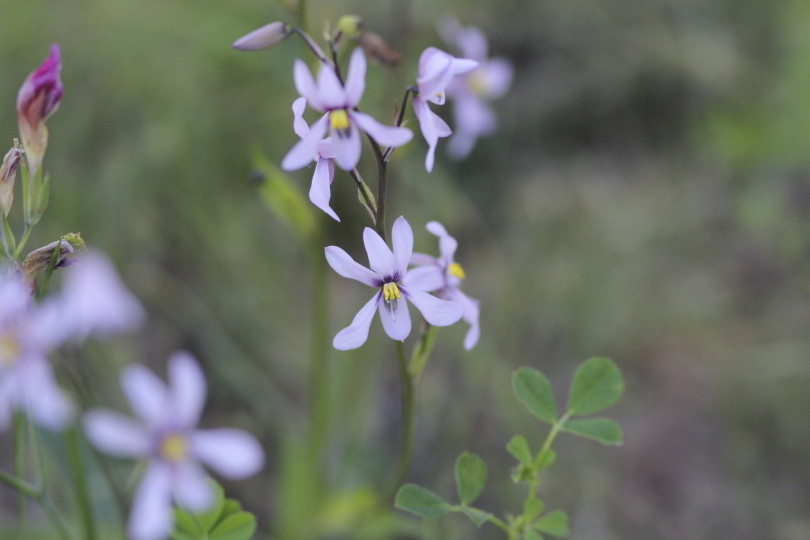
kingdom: Plantae
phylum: Tracheophyta
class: Liliopsida
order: Asparagales
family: Tecophilaeaceae
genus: Cyanella
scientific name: Cyanella orchidiformis
